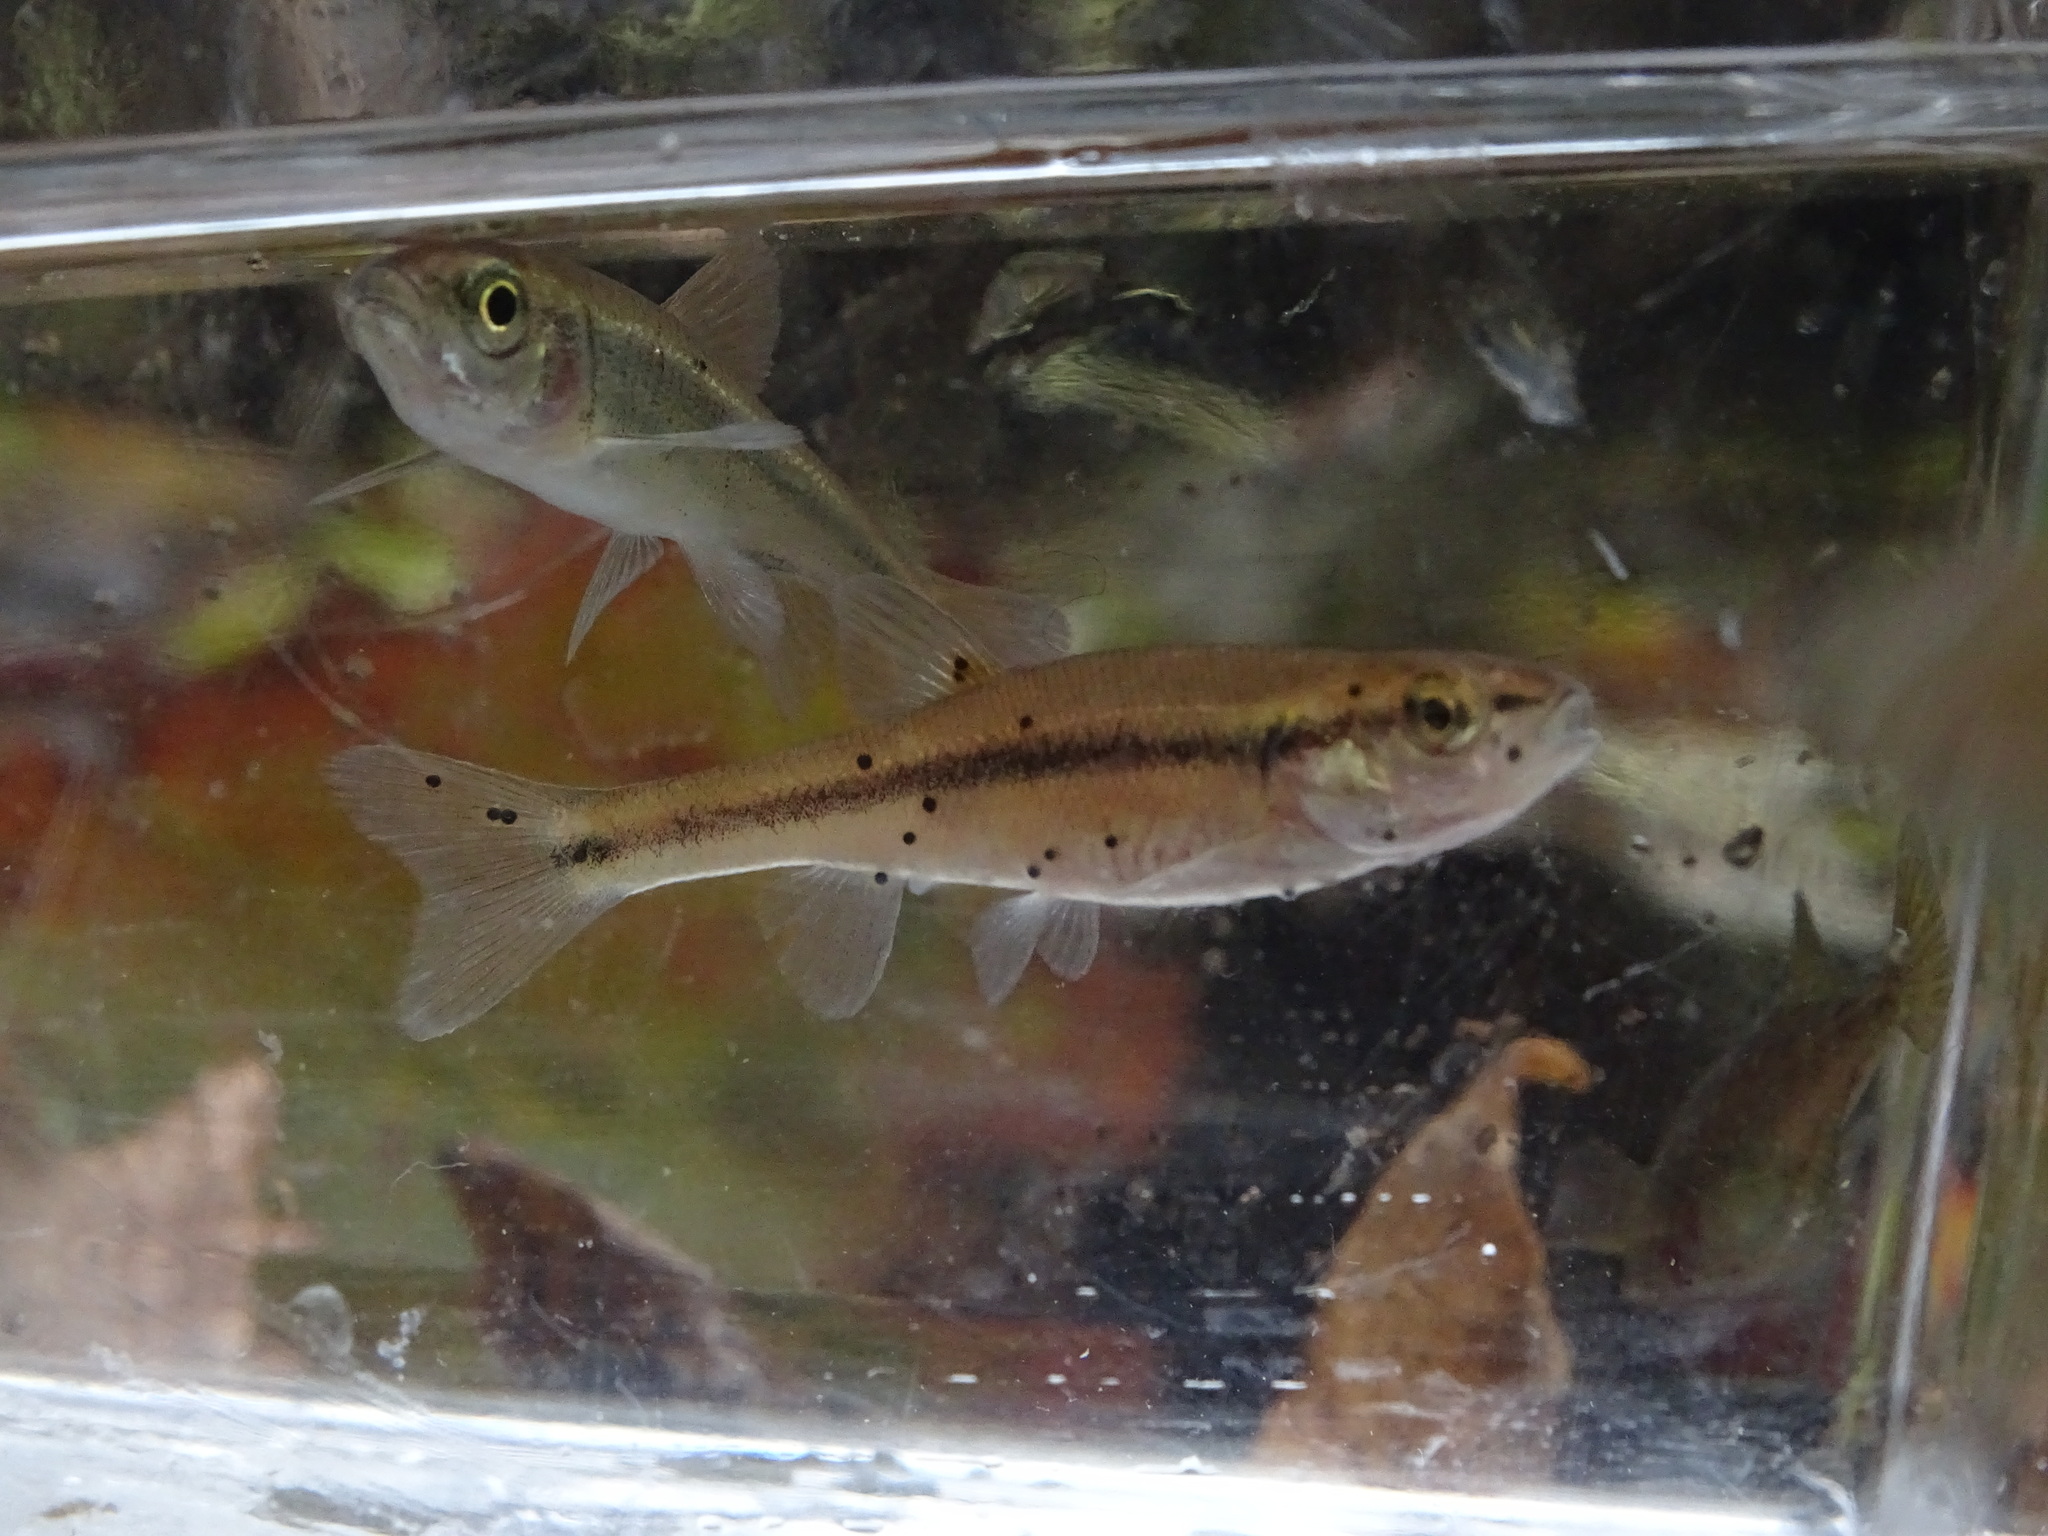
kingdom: Animalia
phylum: Chordata
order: Cypriniformes
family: Cyprinidae
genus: Semotilus
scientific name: Semotilus atromaculatus
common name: Creek chub
